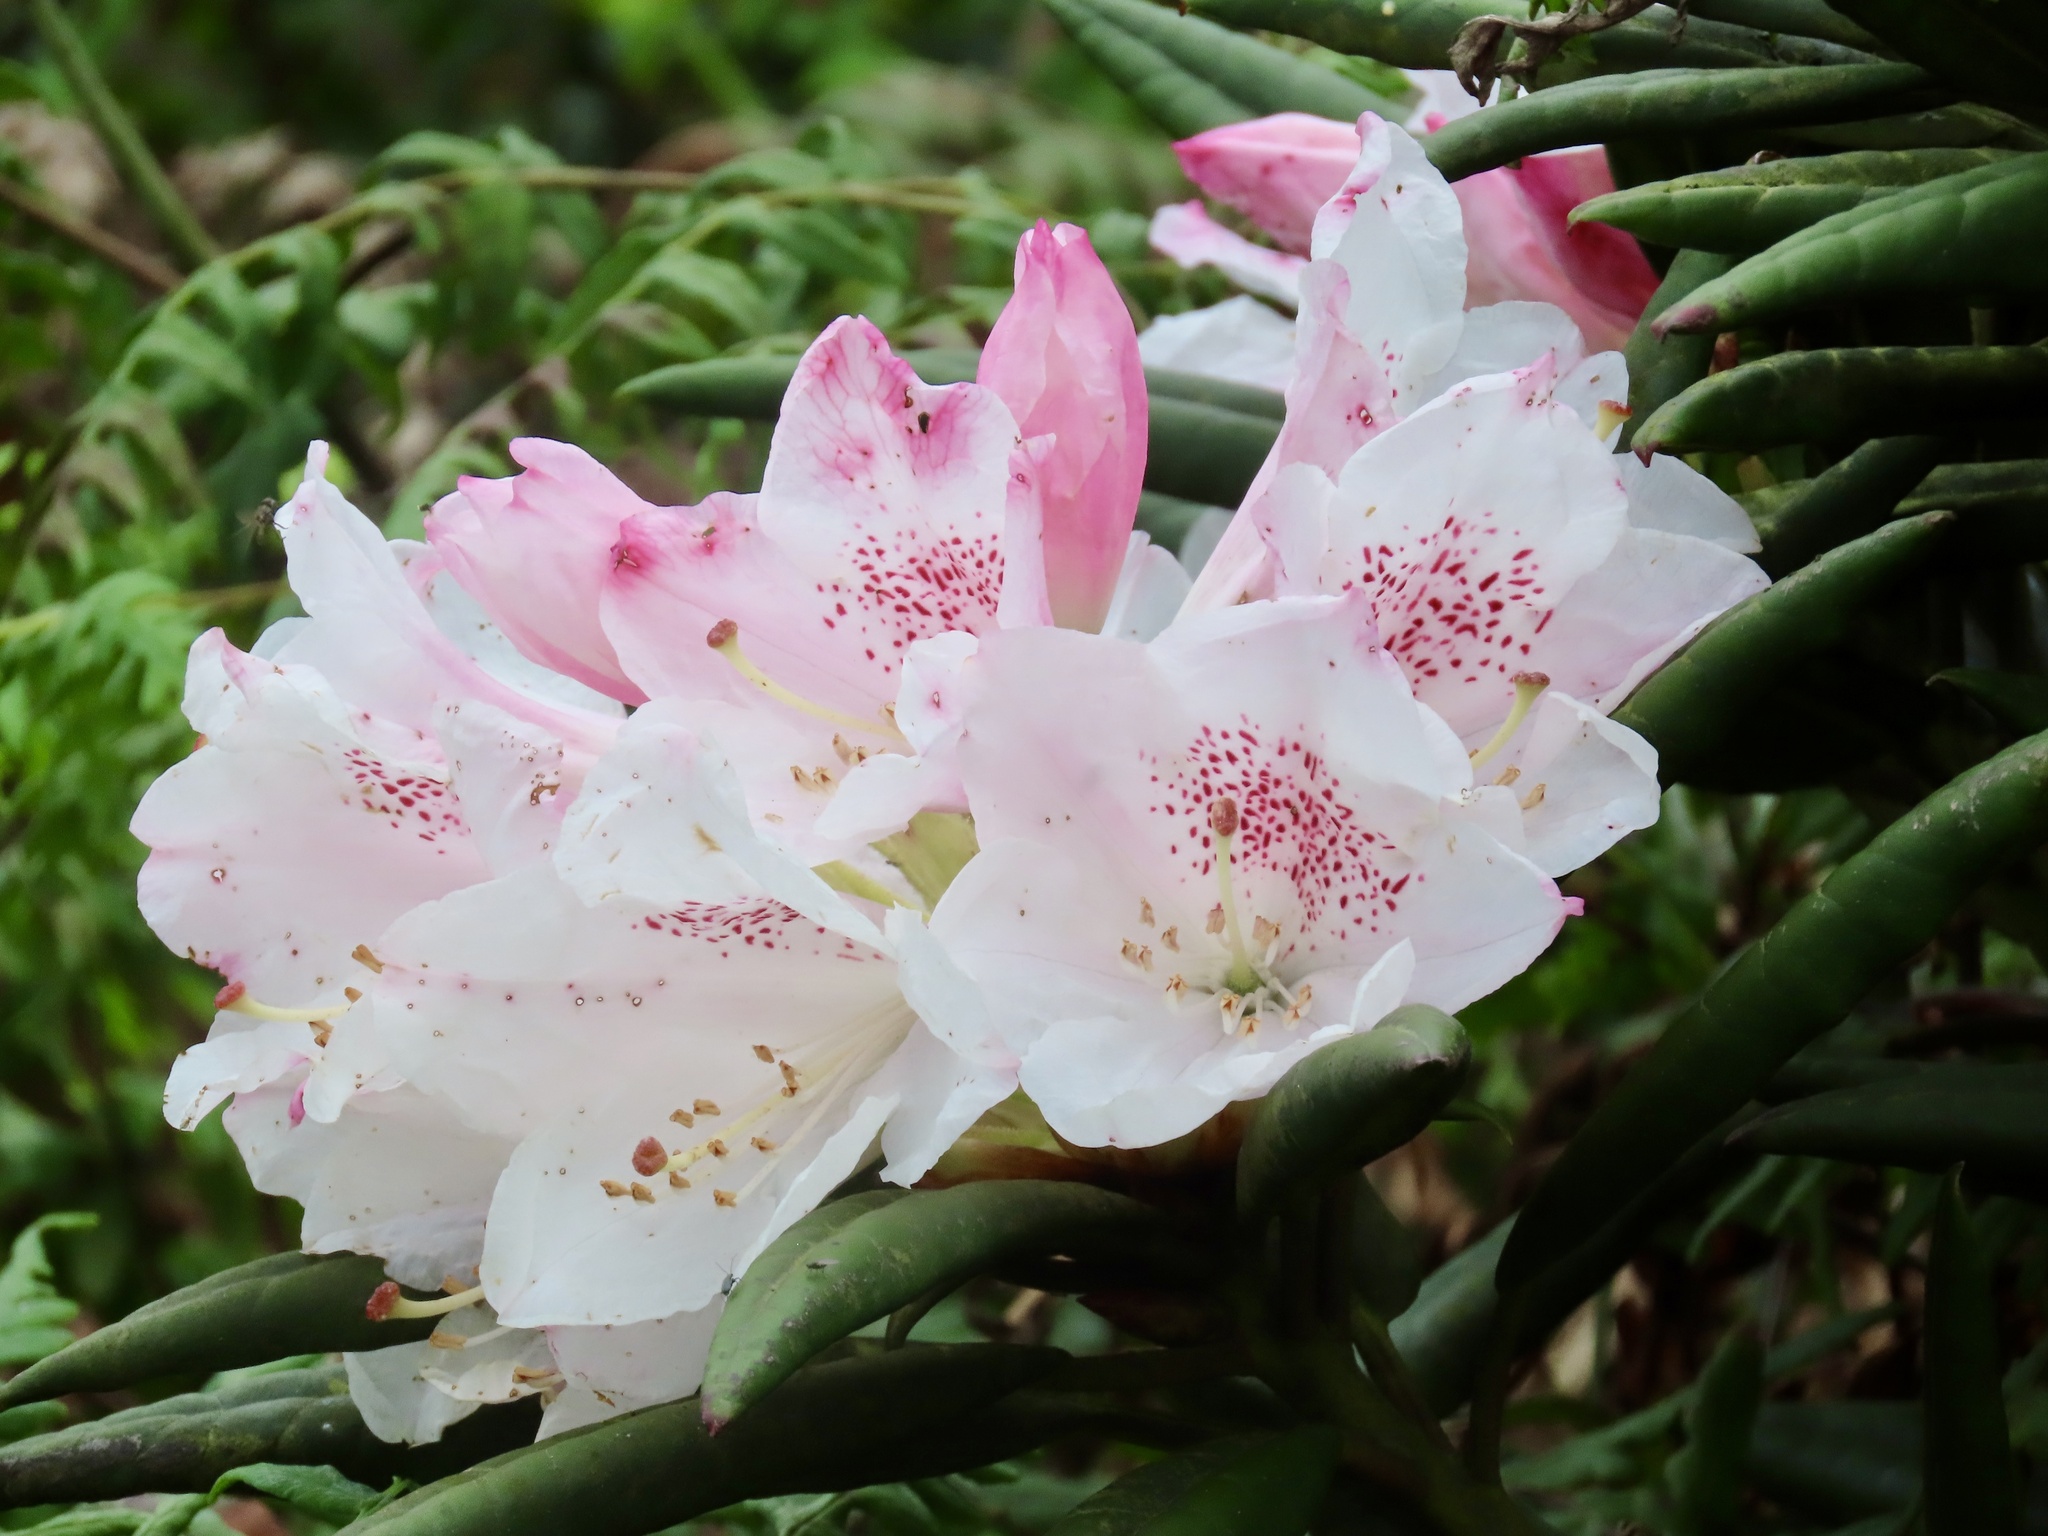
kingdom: Plantae
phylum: Tracheophyta
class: Magnoliopsida
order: Ericales
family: Ericaceae
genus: Rhododendron
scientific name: Rhododendron pseudochrysanthum
